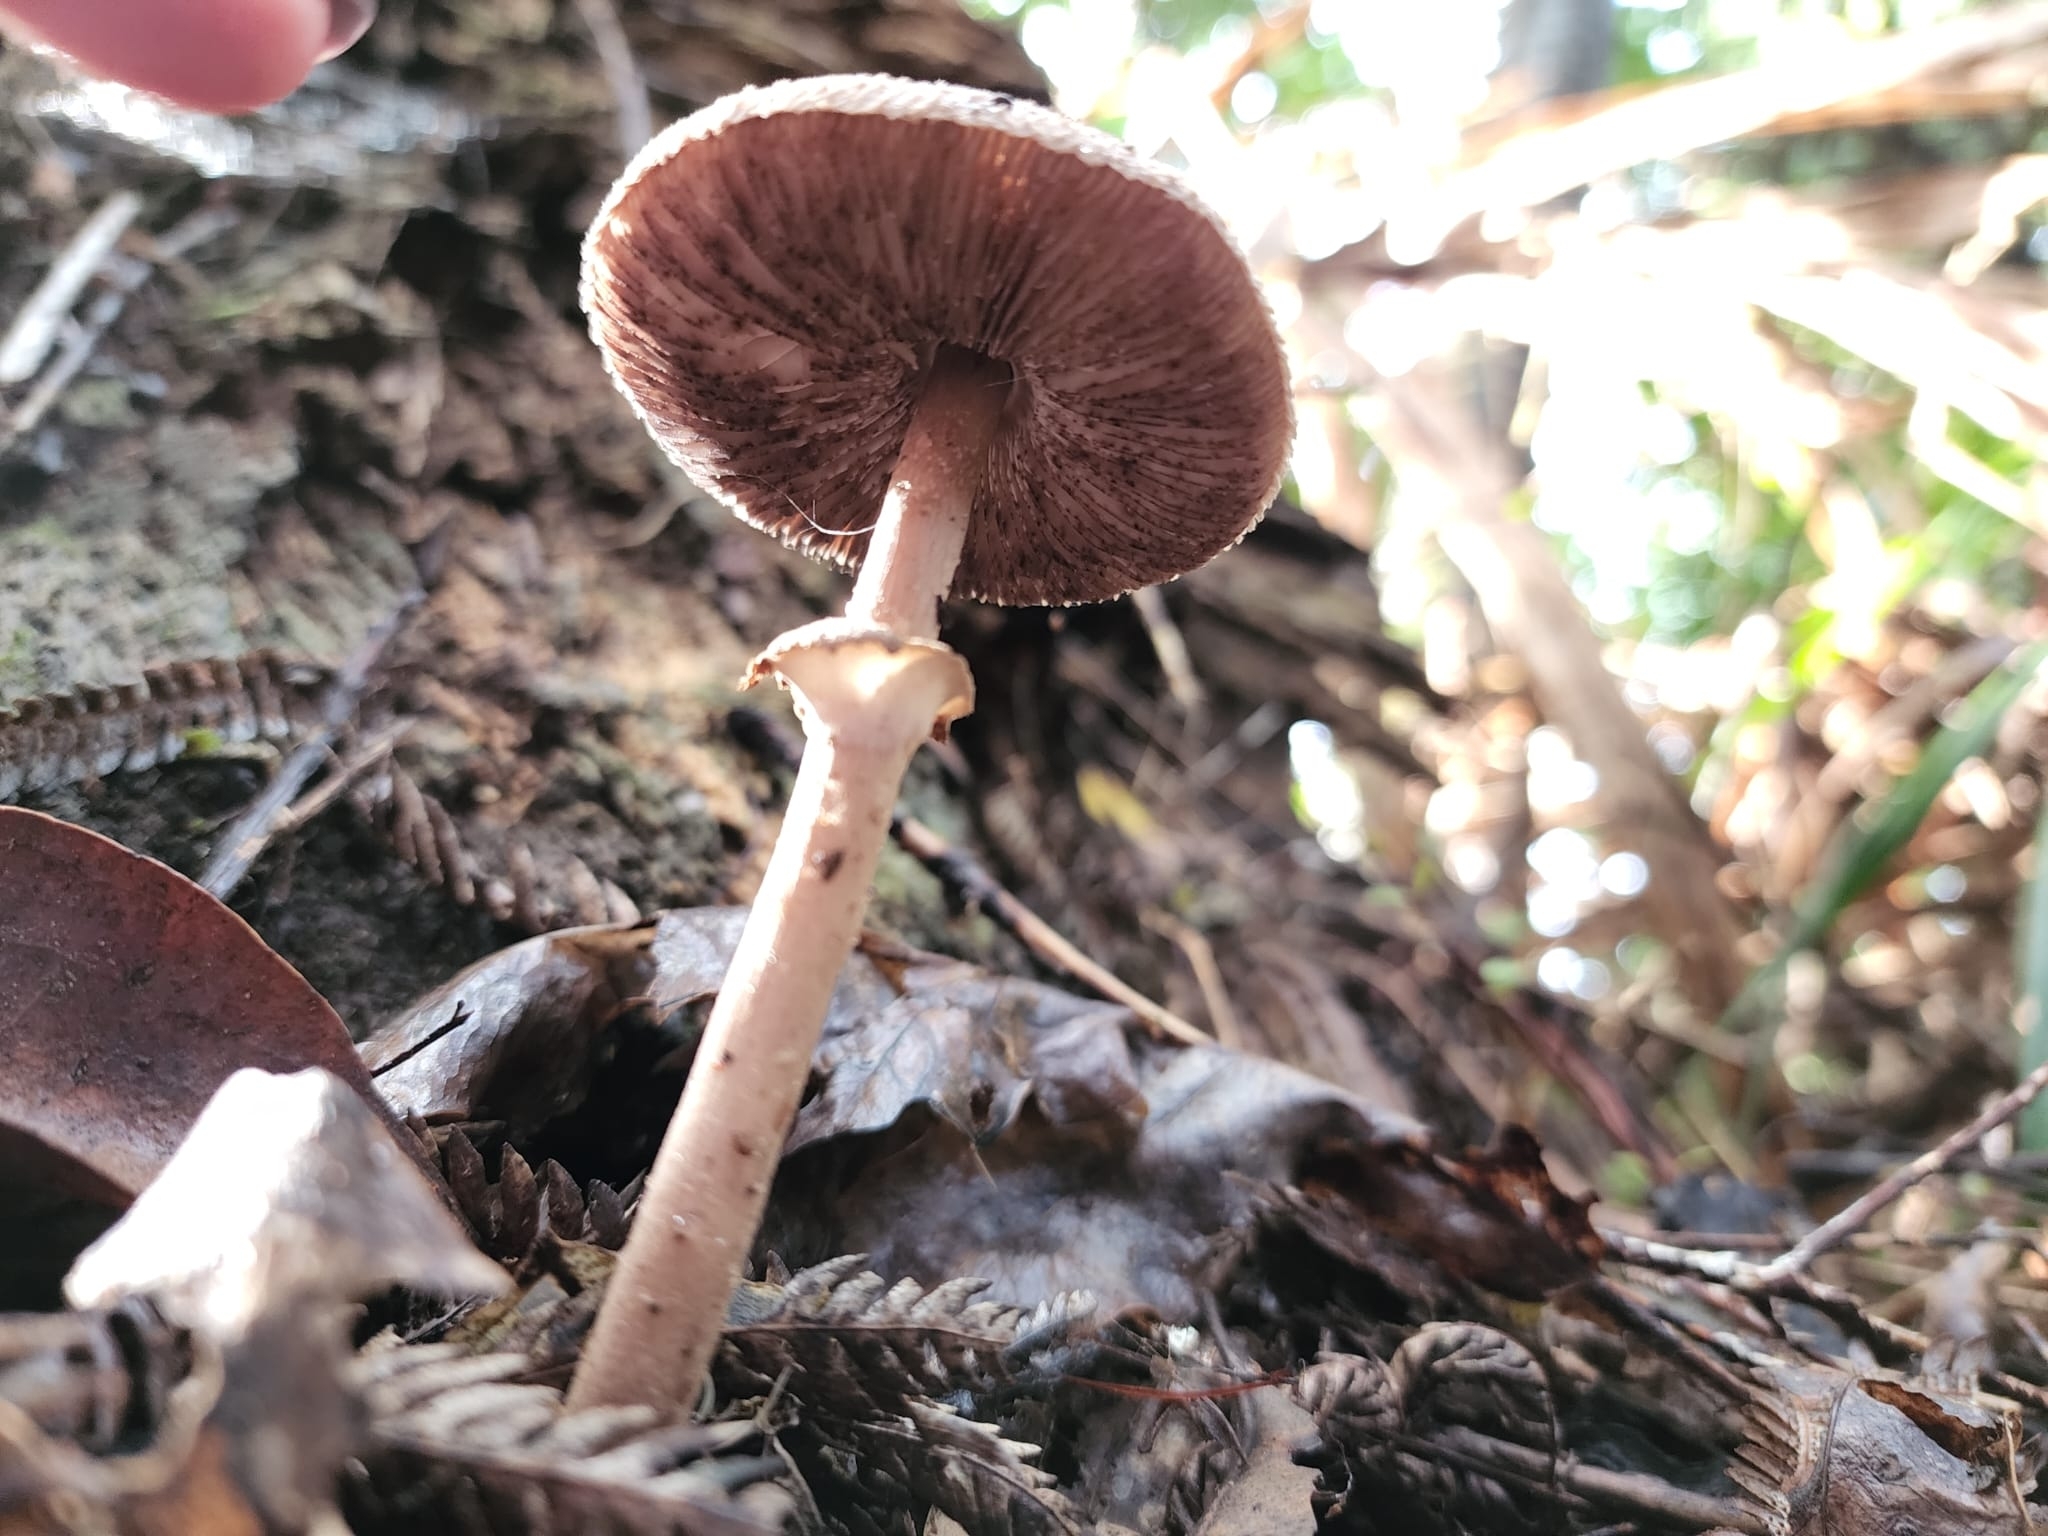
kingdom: Fungi
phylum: Basidiomycota
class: Agaricomycetes
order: Agaricales
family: Agaricaceae
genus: Macrolepiota
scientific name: Macrolepiota clelandii
